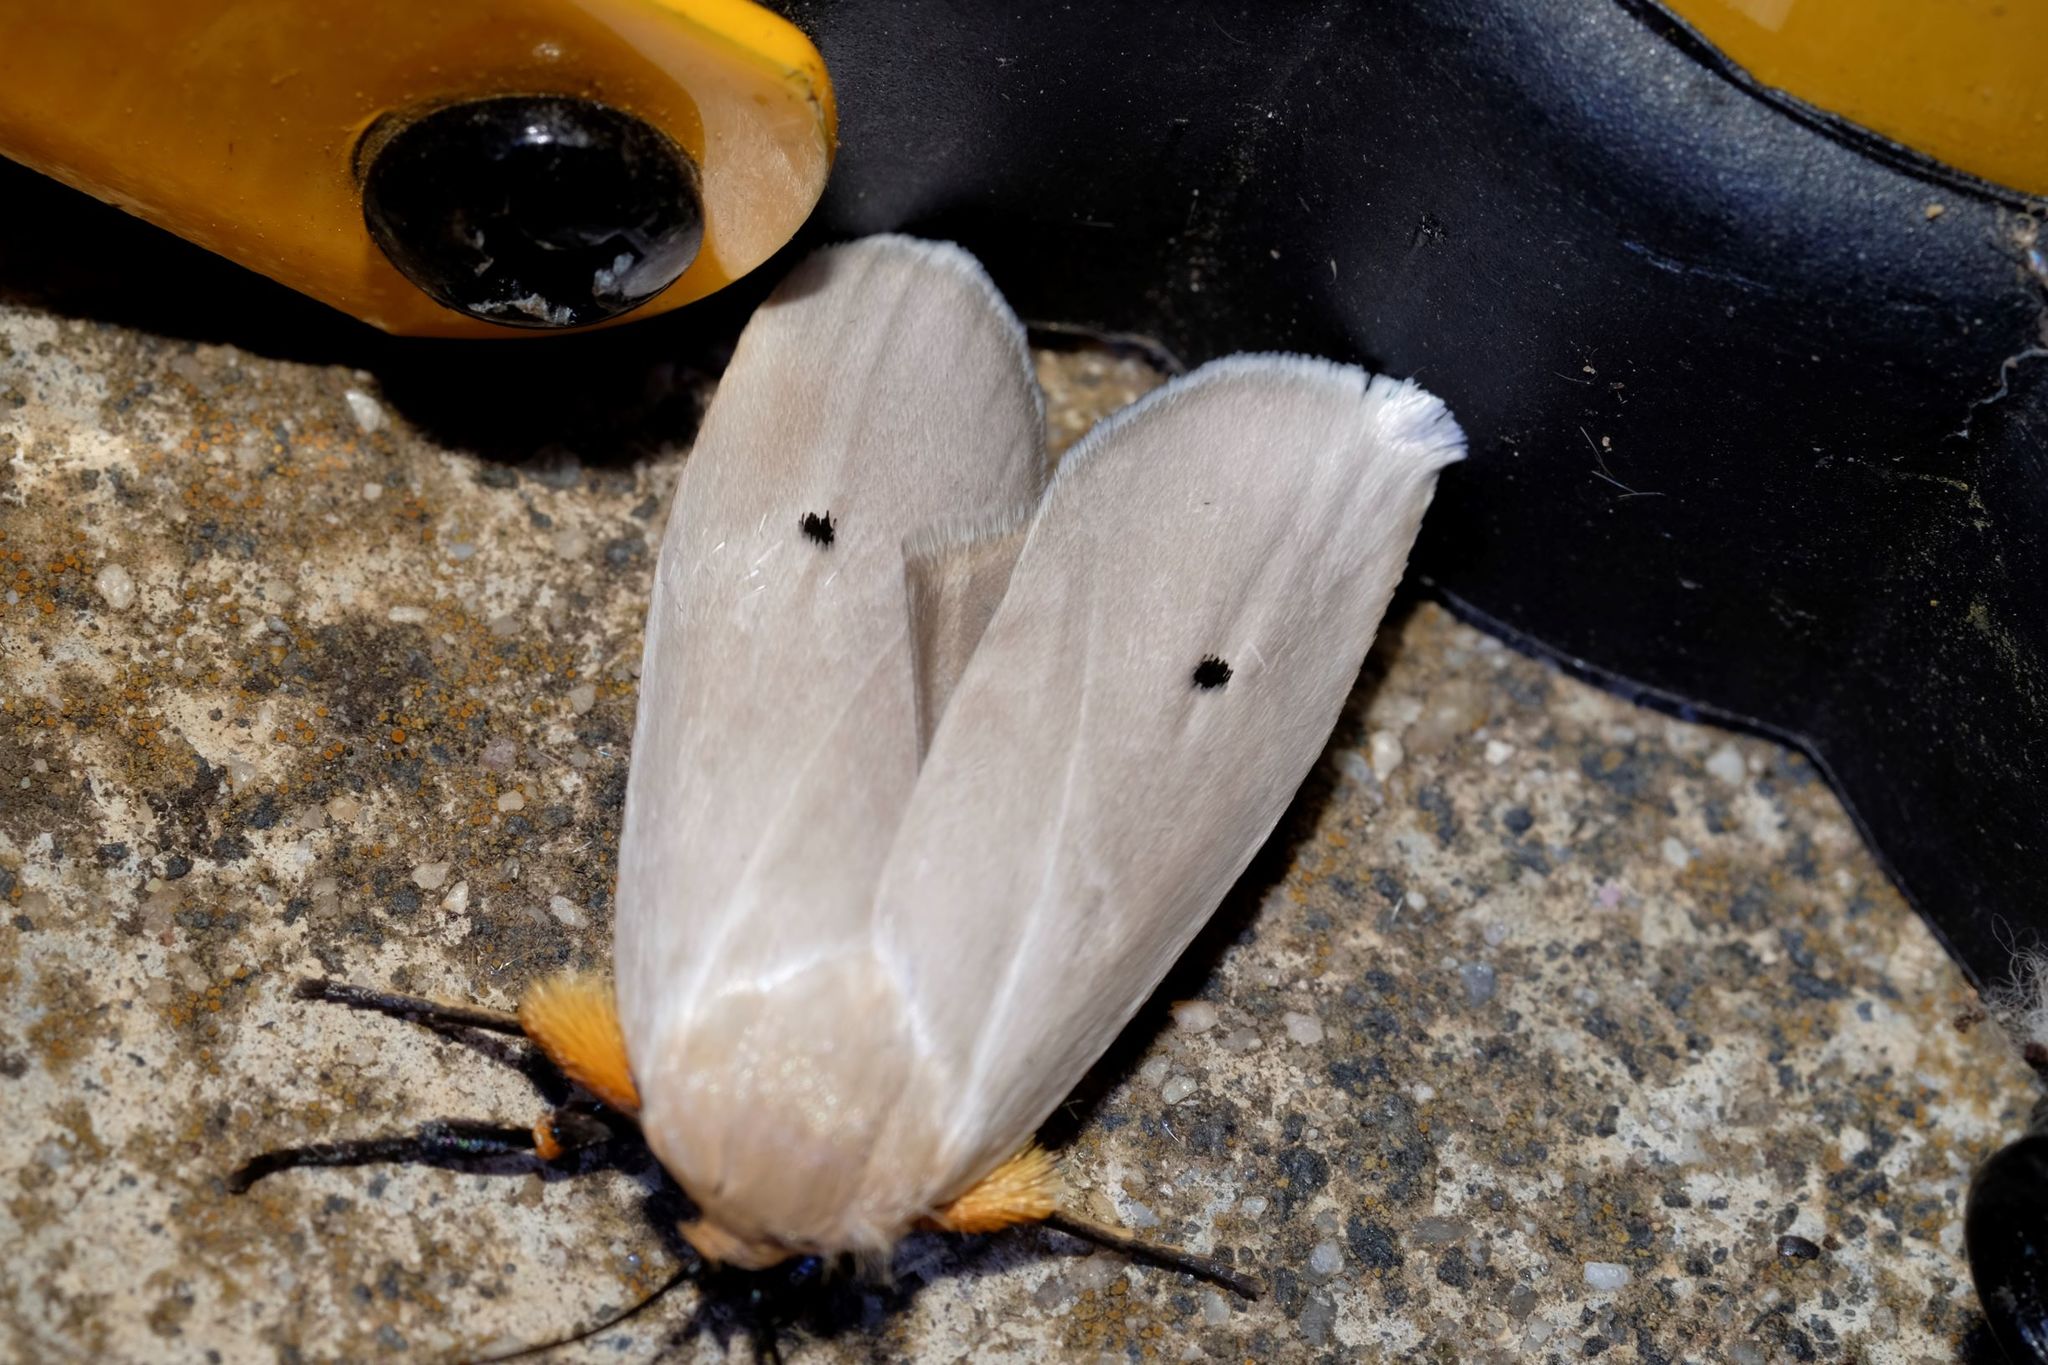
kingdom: Animalia
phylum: Arthropoda
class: Insecta
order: Lepidoptera
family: Xyloryctidae
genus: Maroga
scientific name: Maroga melanostigma
